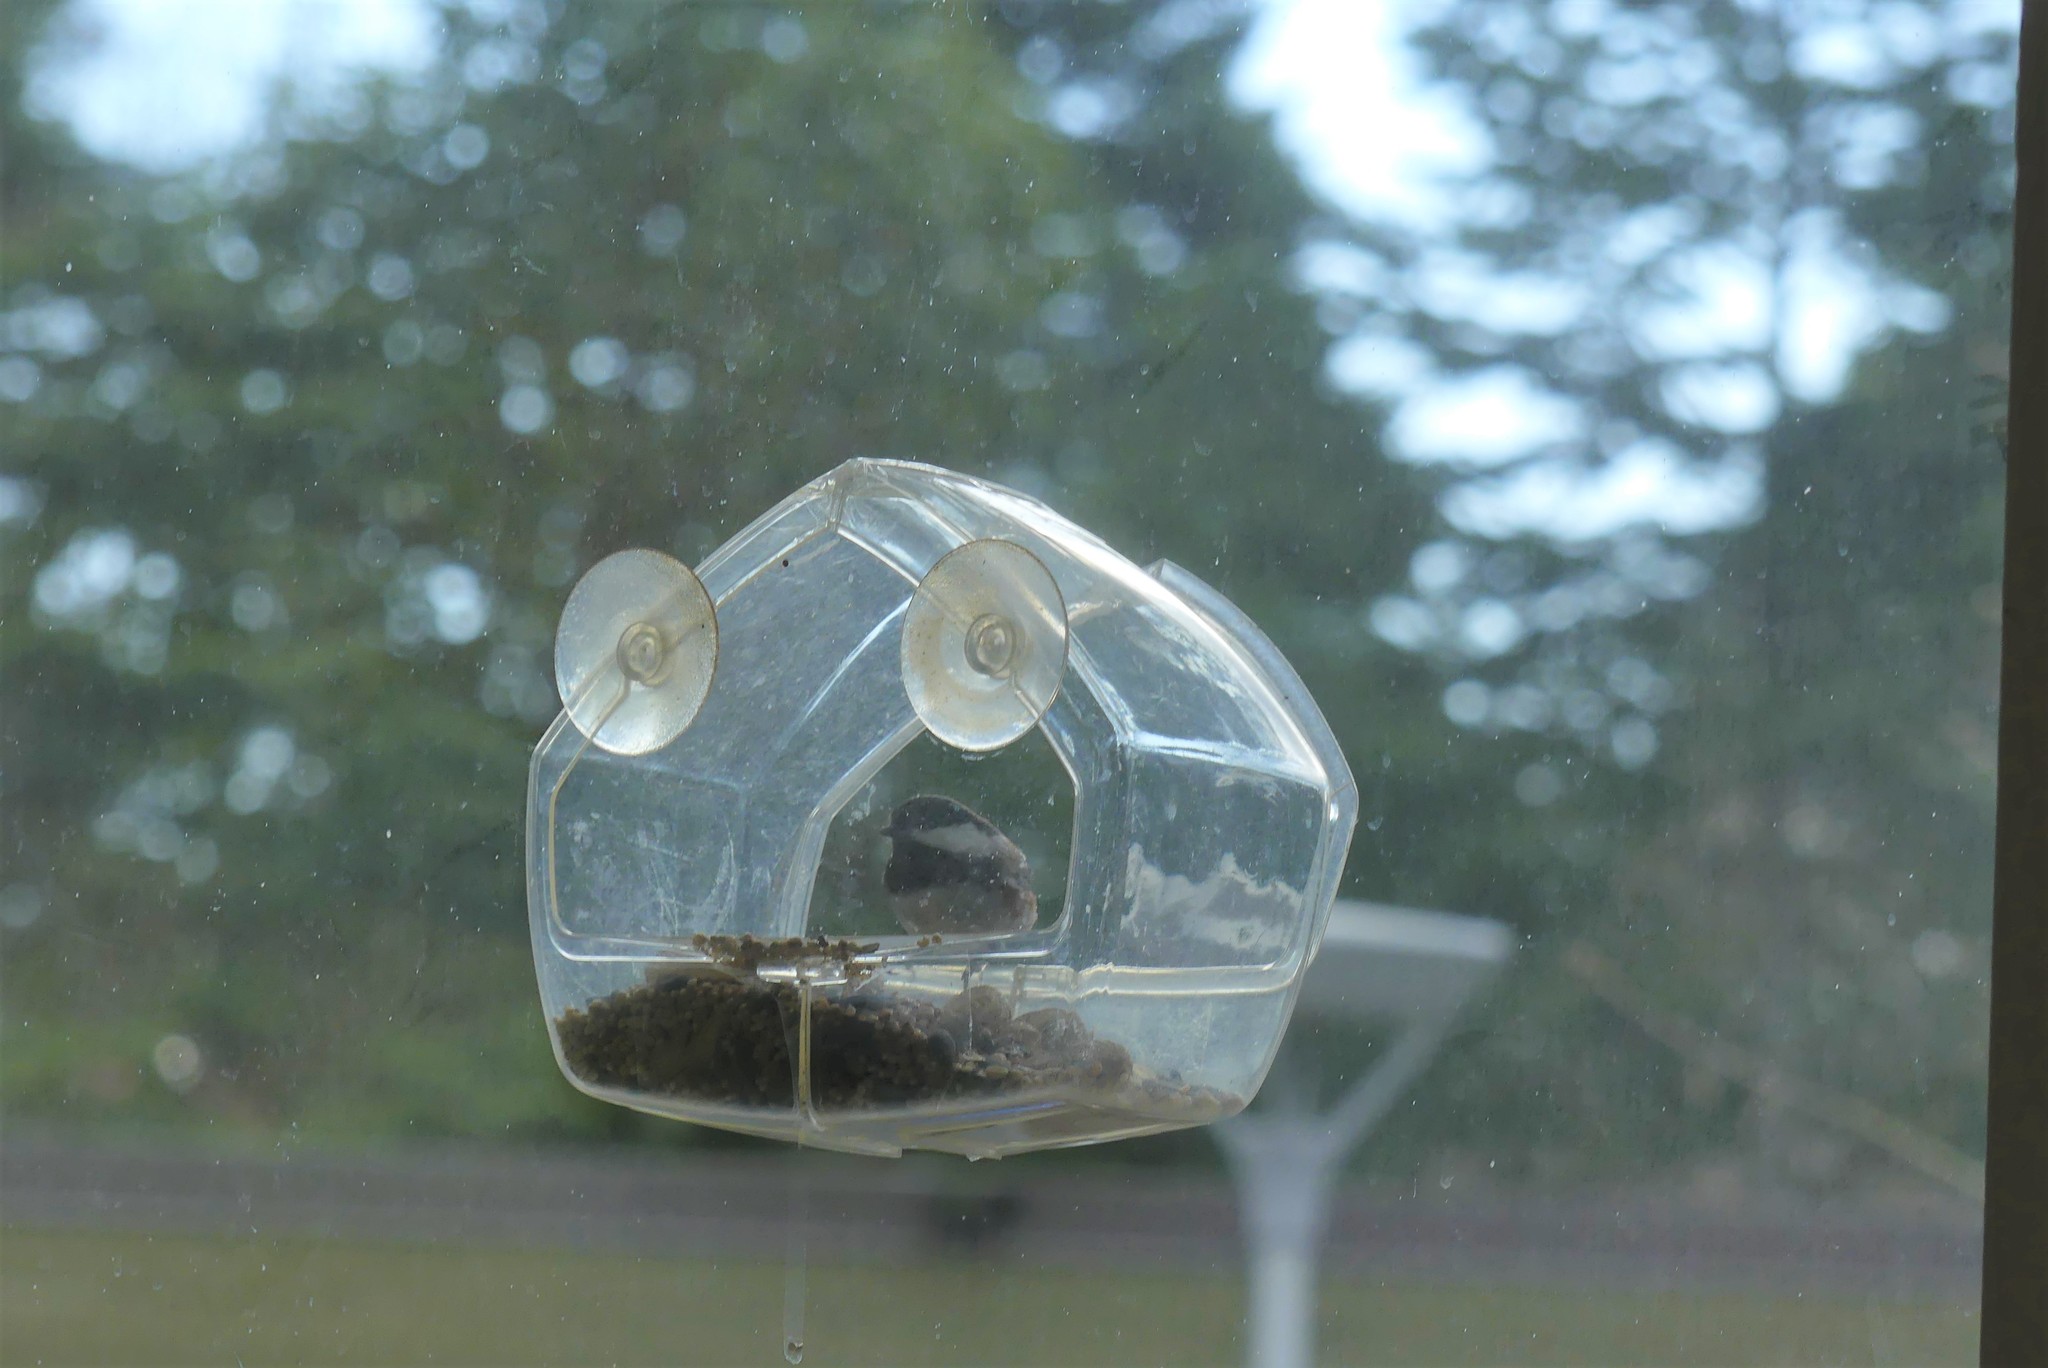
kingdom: Animalia
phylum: Chordata
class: Aves
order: Passeriformes
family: Paridae
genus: Poecile
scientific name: Poecile rufescens
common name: Chestnut-backed chickadee
